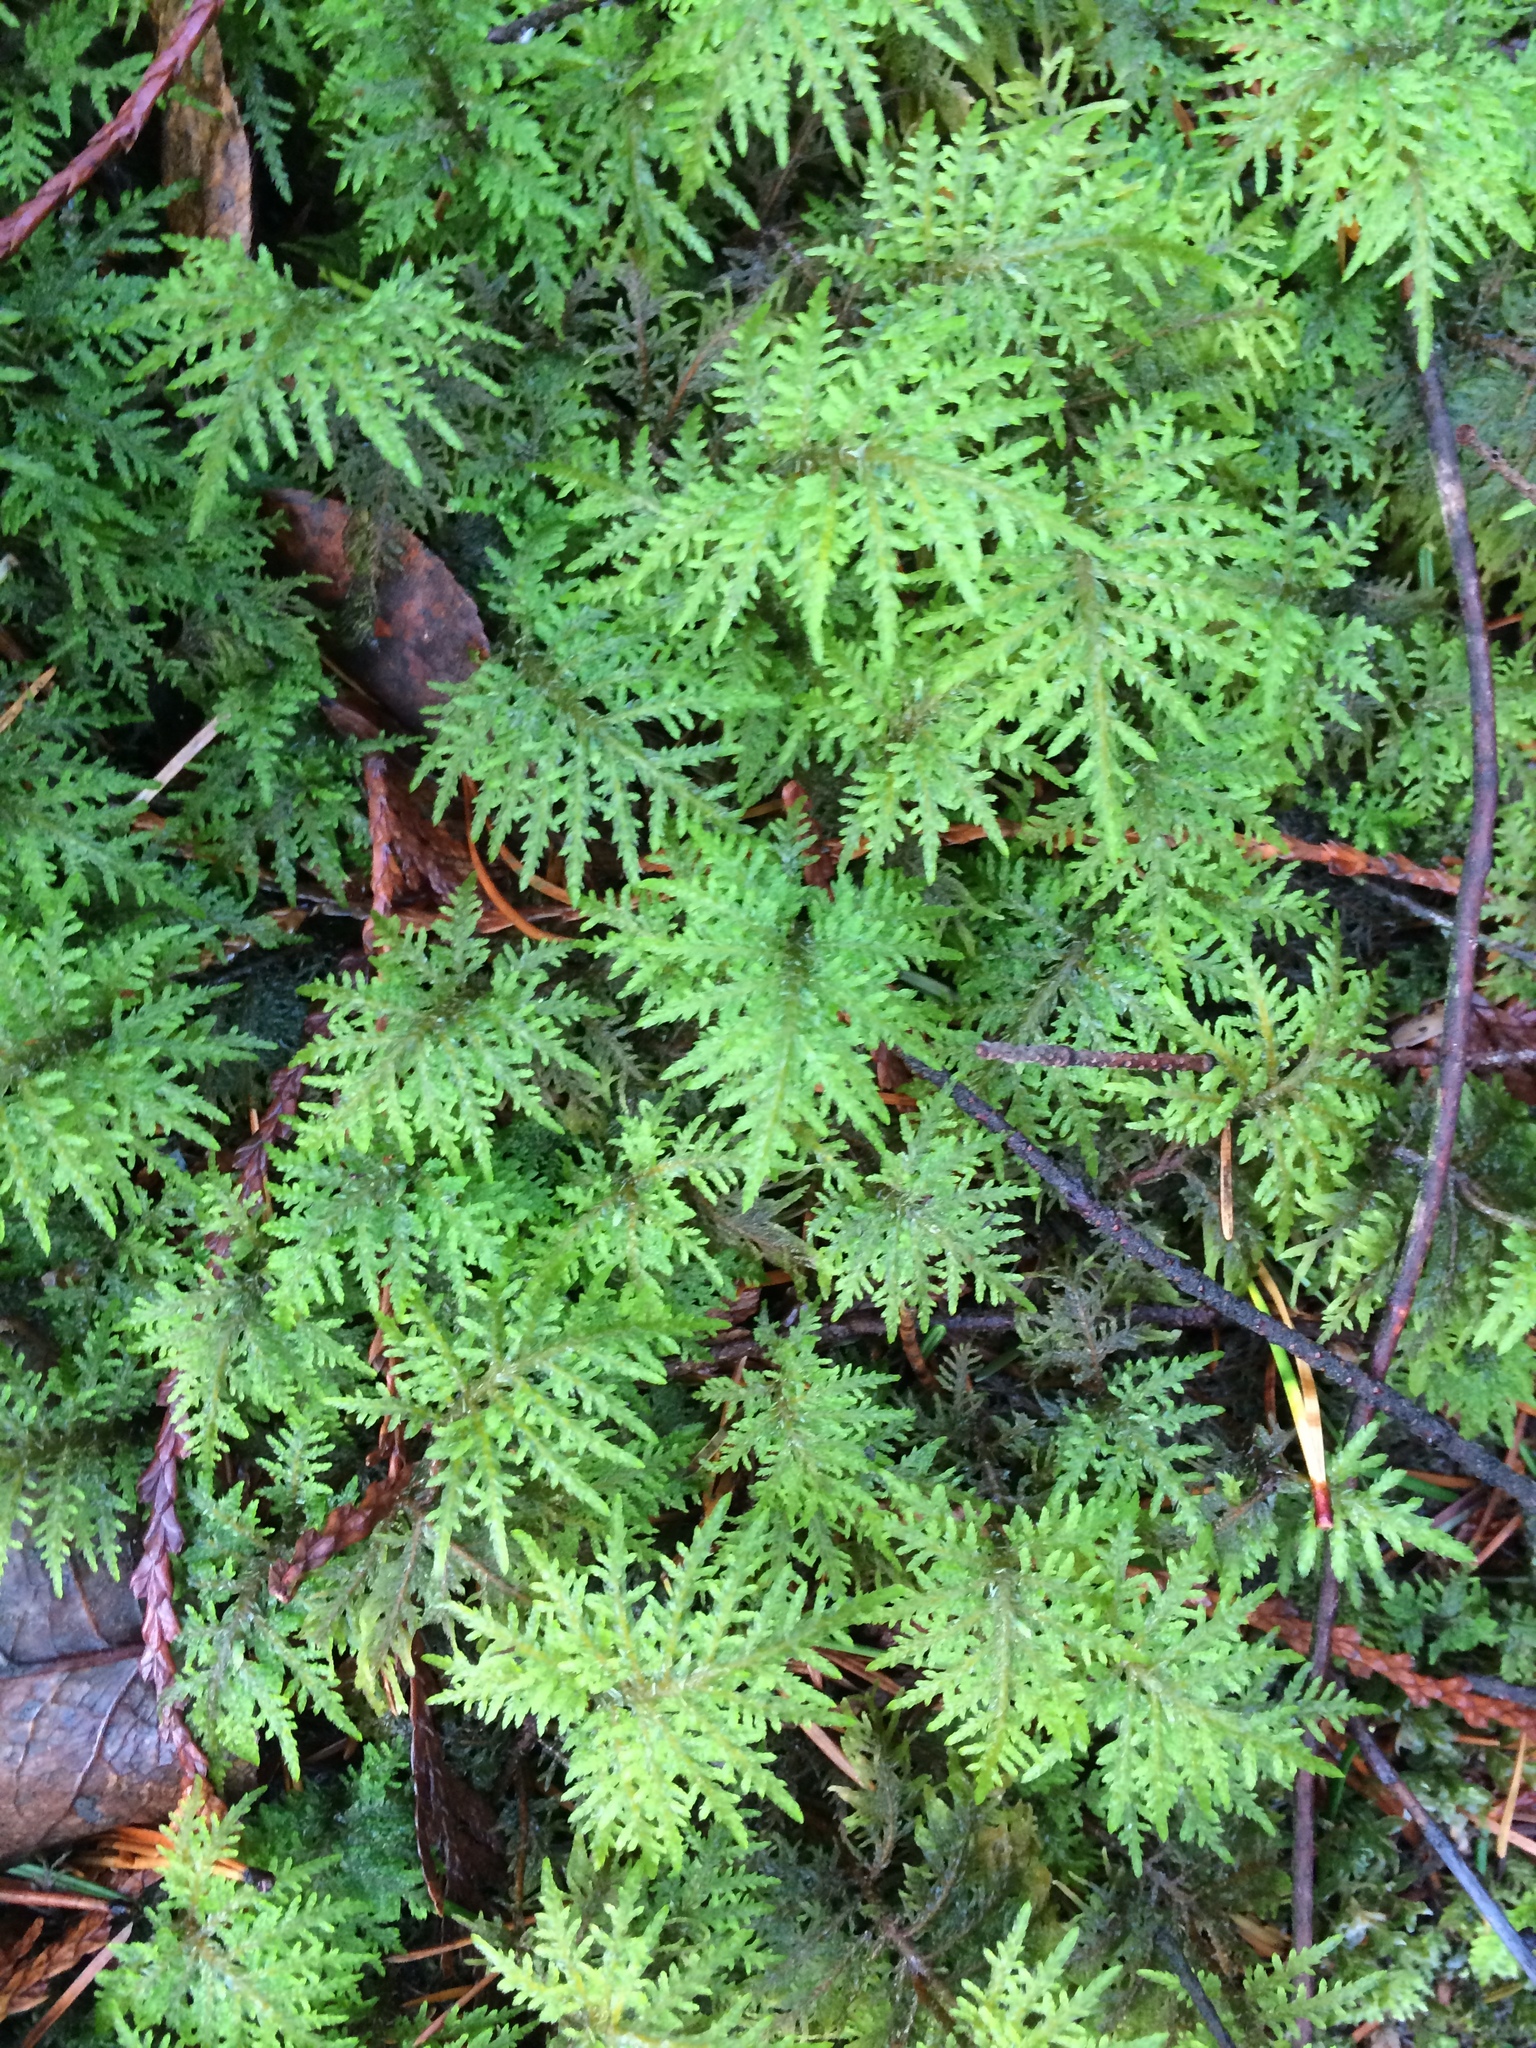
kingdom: Plantae
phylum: Bryophyta
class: Bryopsida
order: Hypnales
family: Hylocomiaceae
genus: Hylocomium
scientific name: Hylocomium splendens
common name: Stairstep moss
